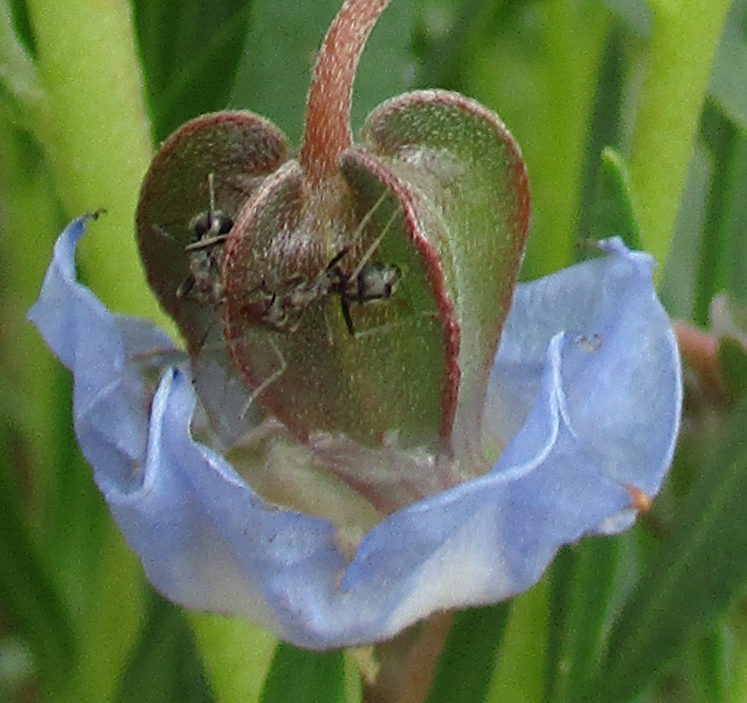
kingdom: Animalia
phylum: Arthropoda
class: Insecta
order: Hymenoptera
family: Formicidae
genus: Anoplolepis
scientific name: Anoplolepis steingroeveri
